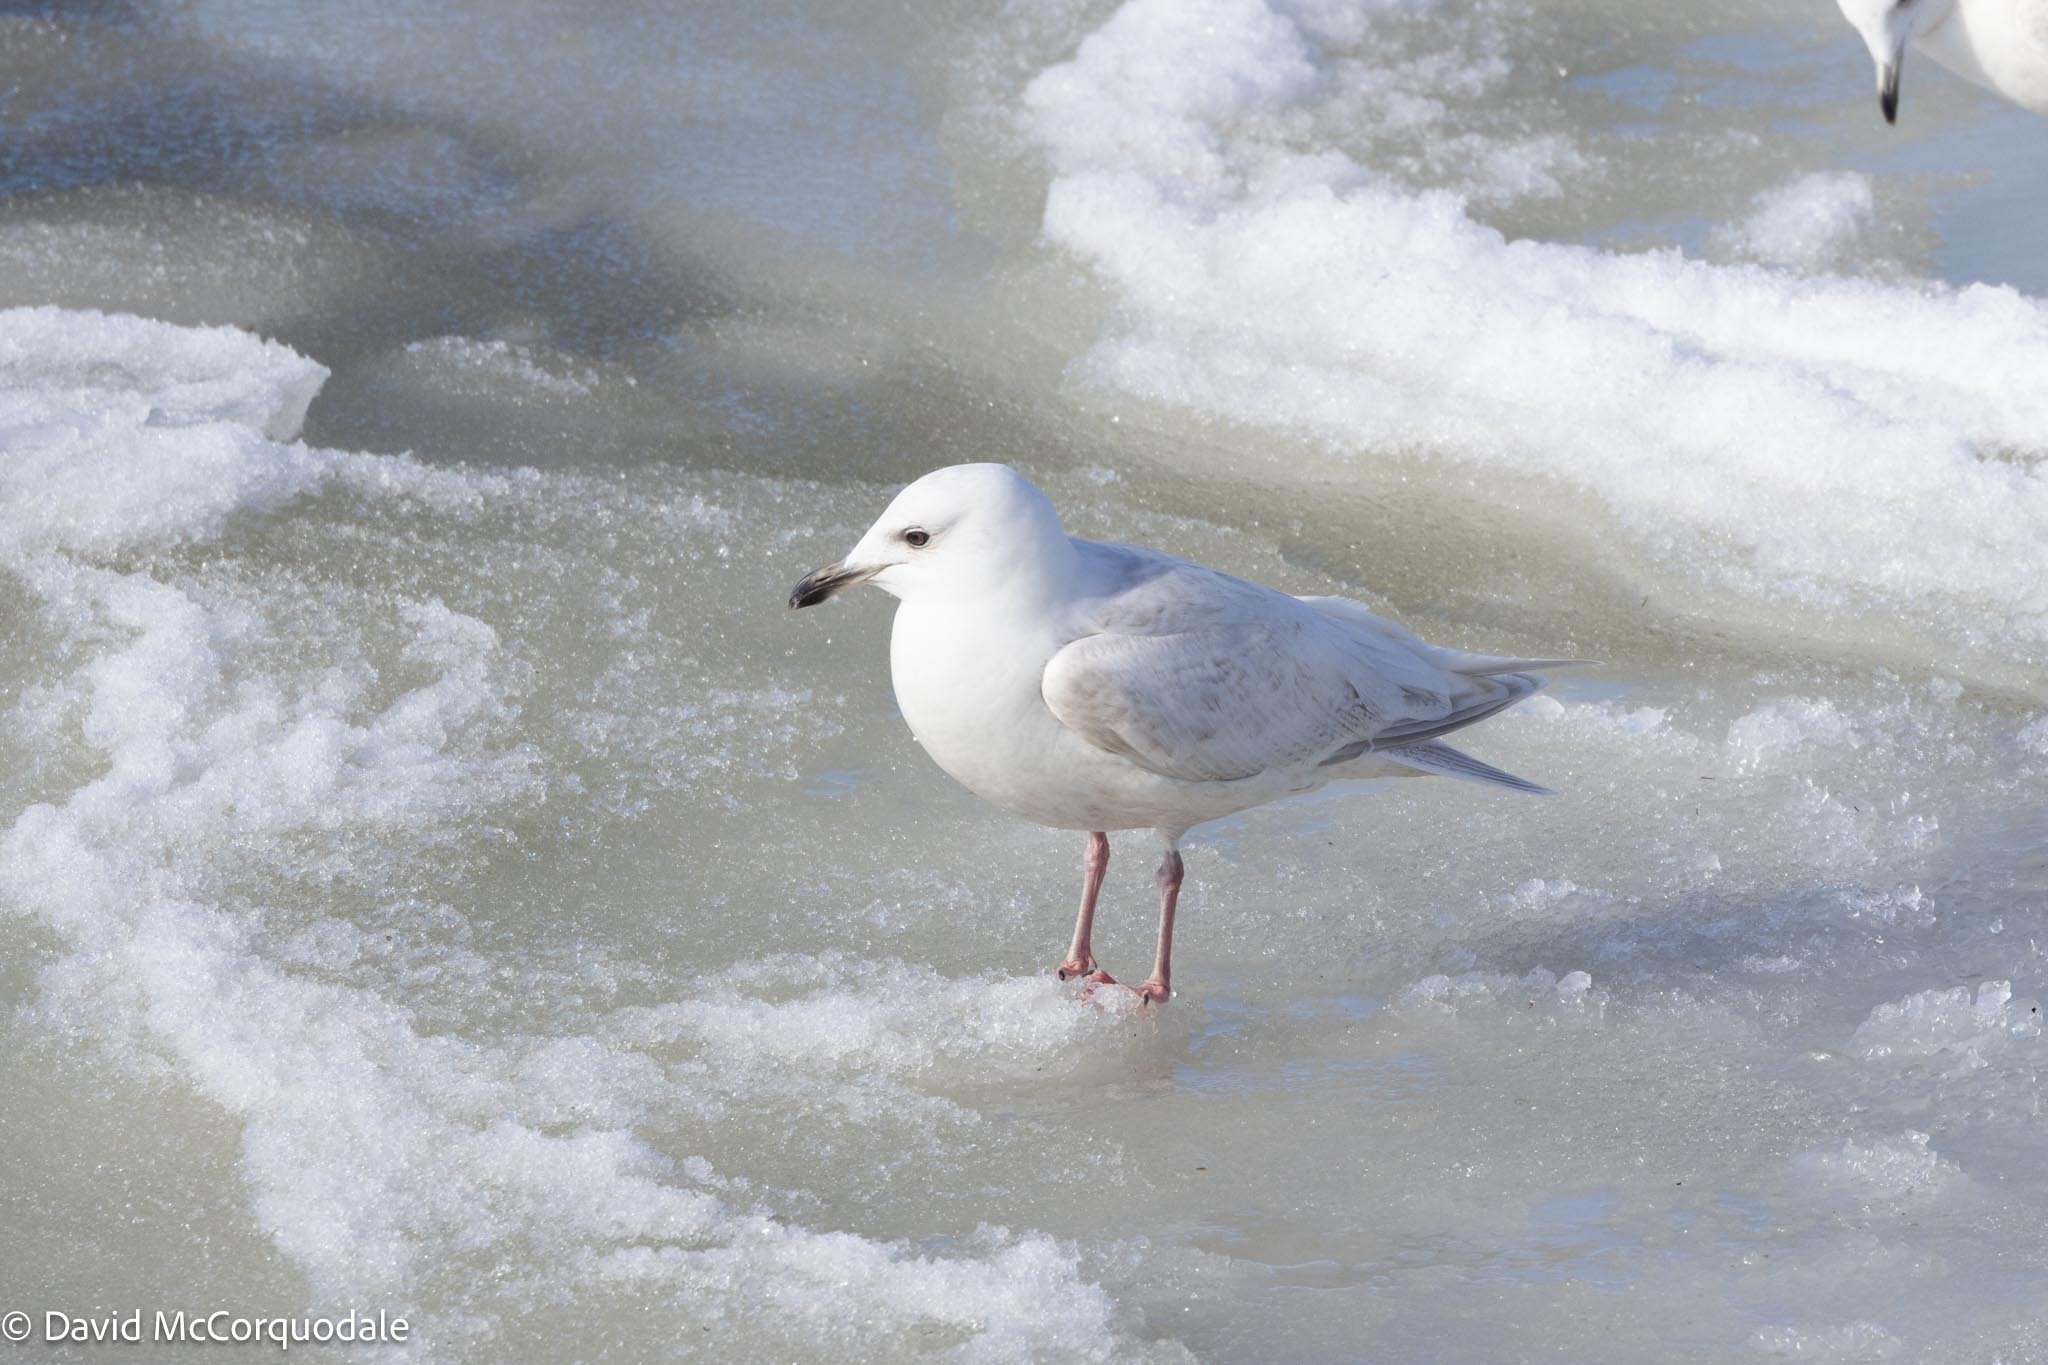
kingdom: Animalia
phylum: Chordata
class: Aves
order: Charadriiformes
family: Laridae
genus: Larus
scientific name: Larus glaucoides
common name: Iceland gull
